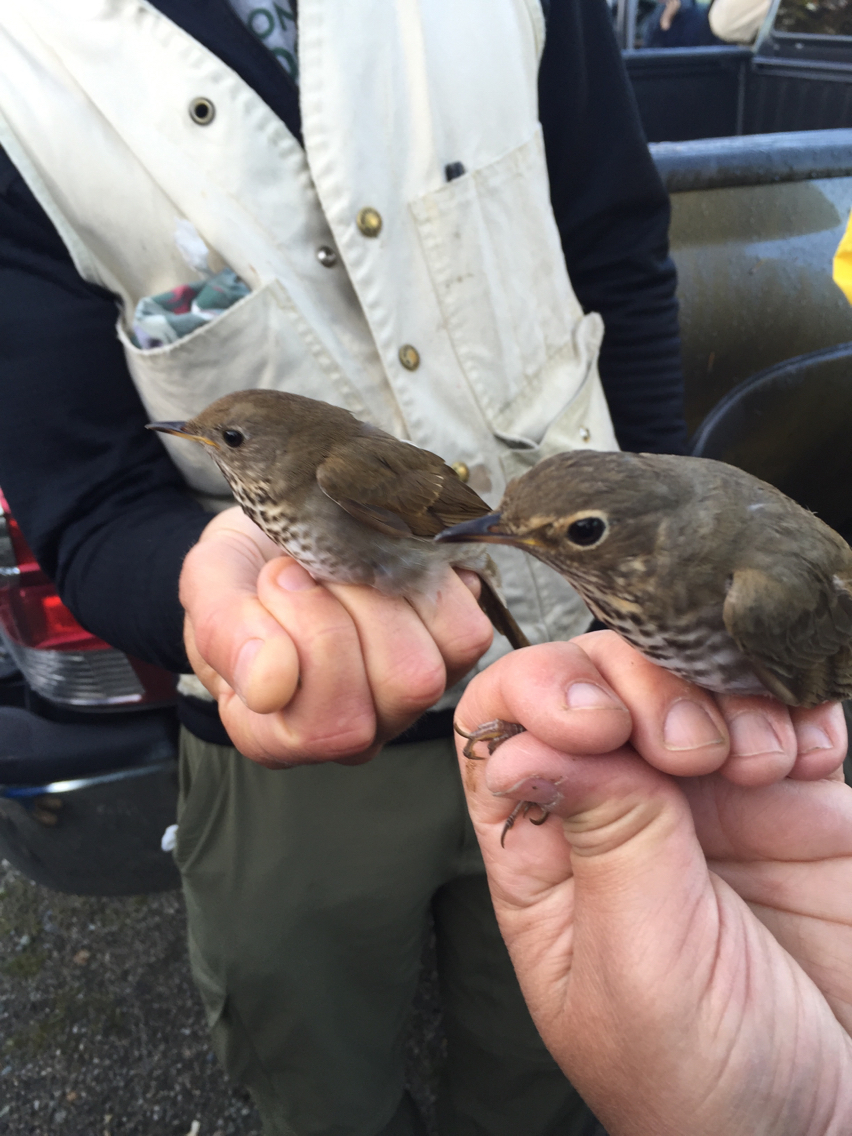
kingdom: Animalia
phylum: Chordata
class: Aves
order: Passeriformes
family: Turdidae
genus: Catharus
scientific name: Catharus bicknelli
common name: Bicknell's thrush
